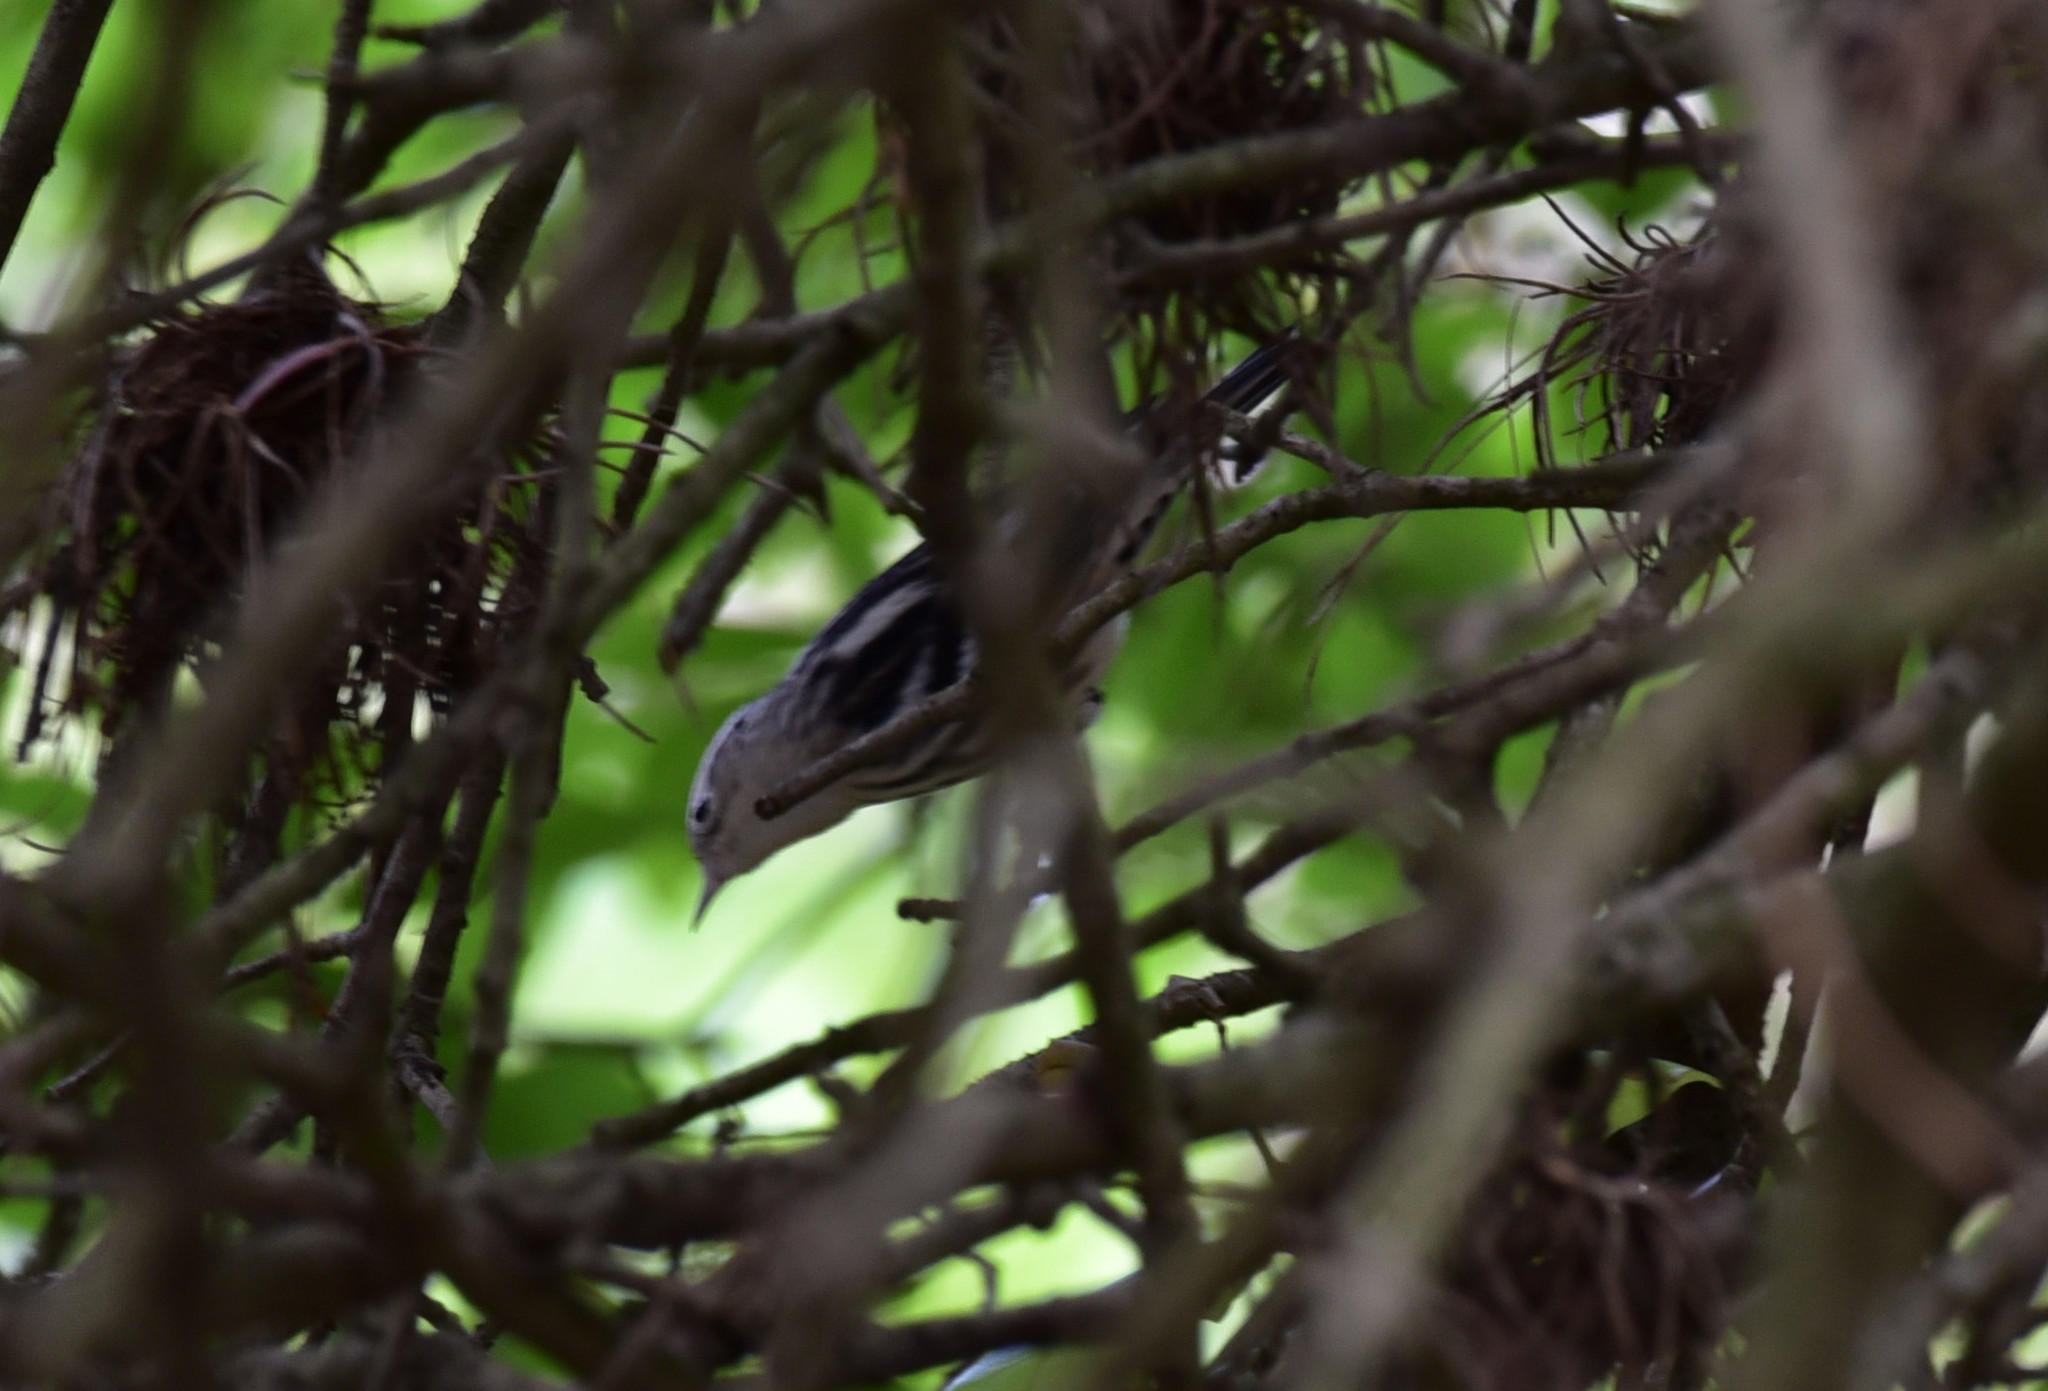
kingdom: Animalia
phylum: Chordata
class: Aves
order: Passeriformes
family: Parulidae
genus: Mniotilta
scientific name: Mniotilta varia
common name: Black-and-white warbler
